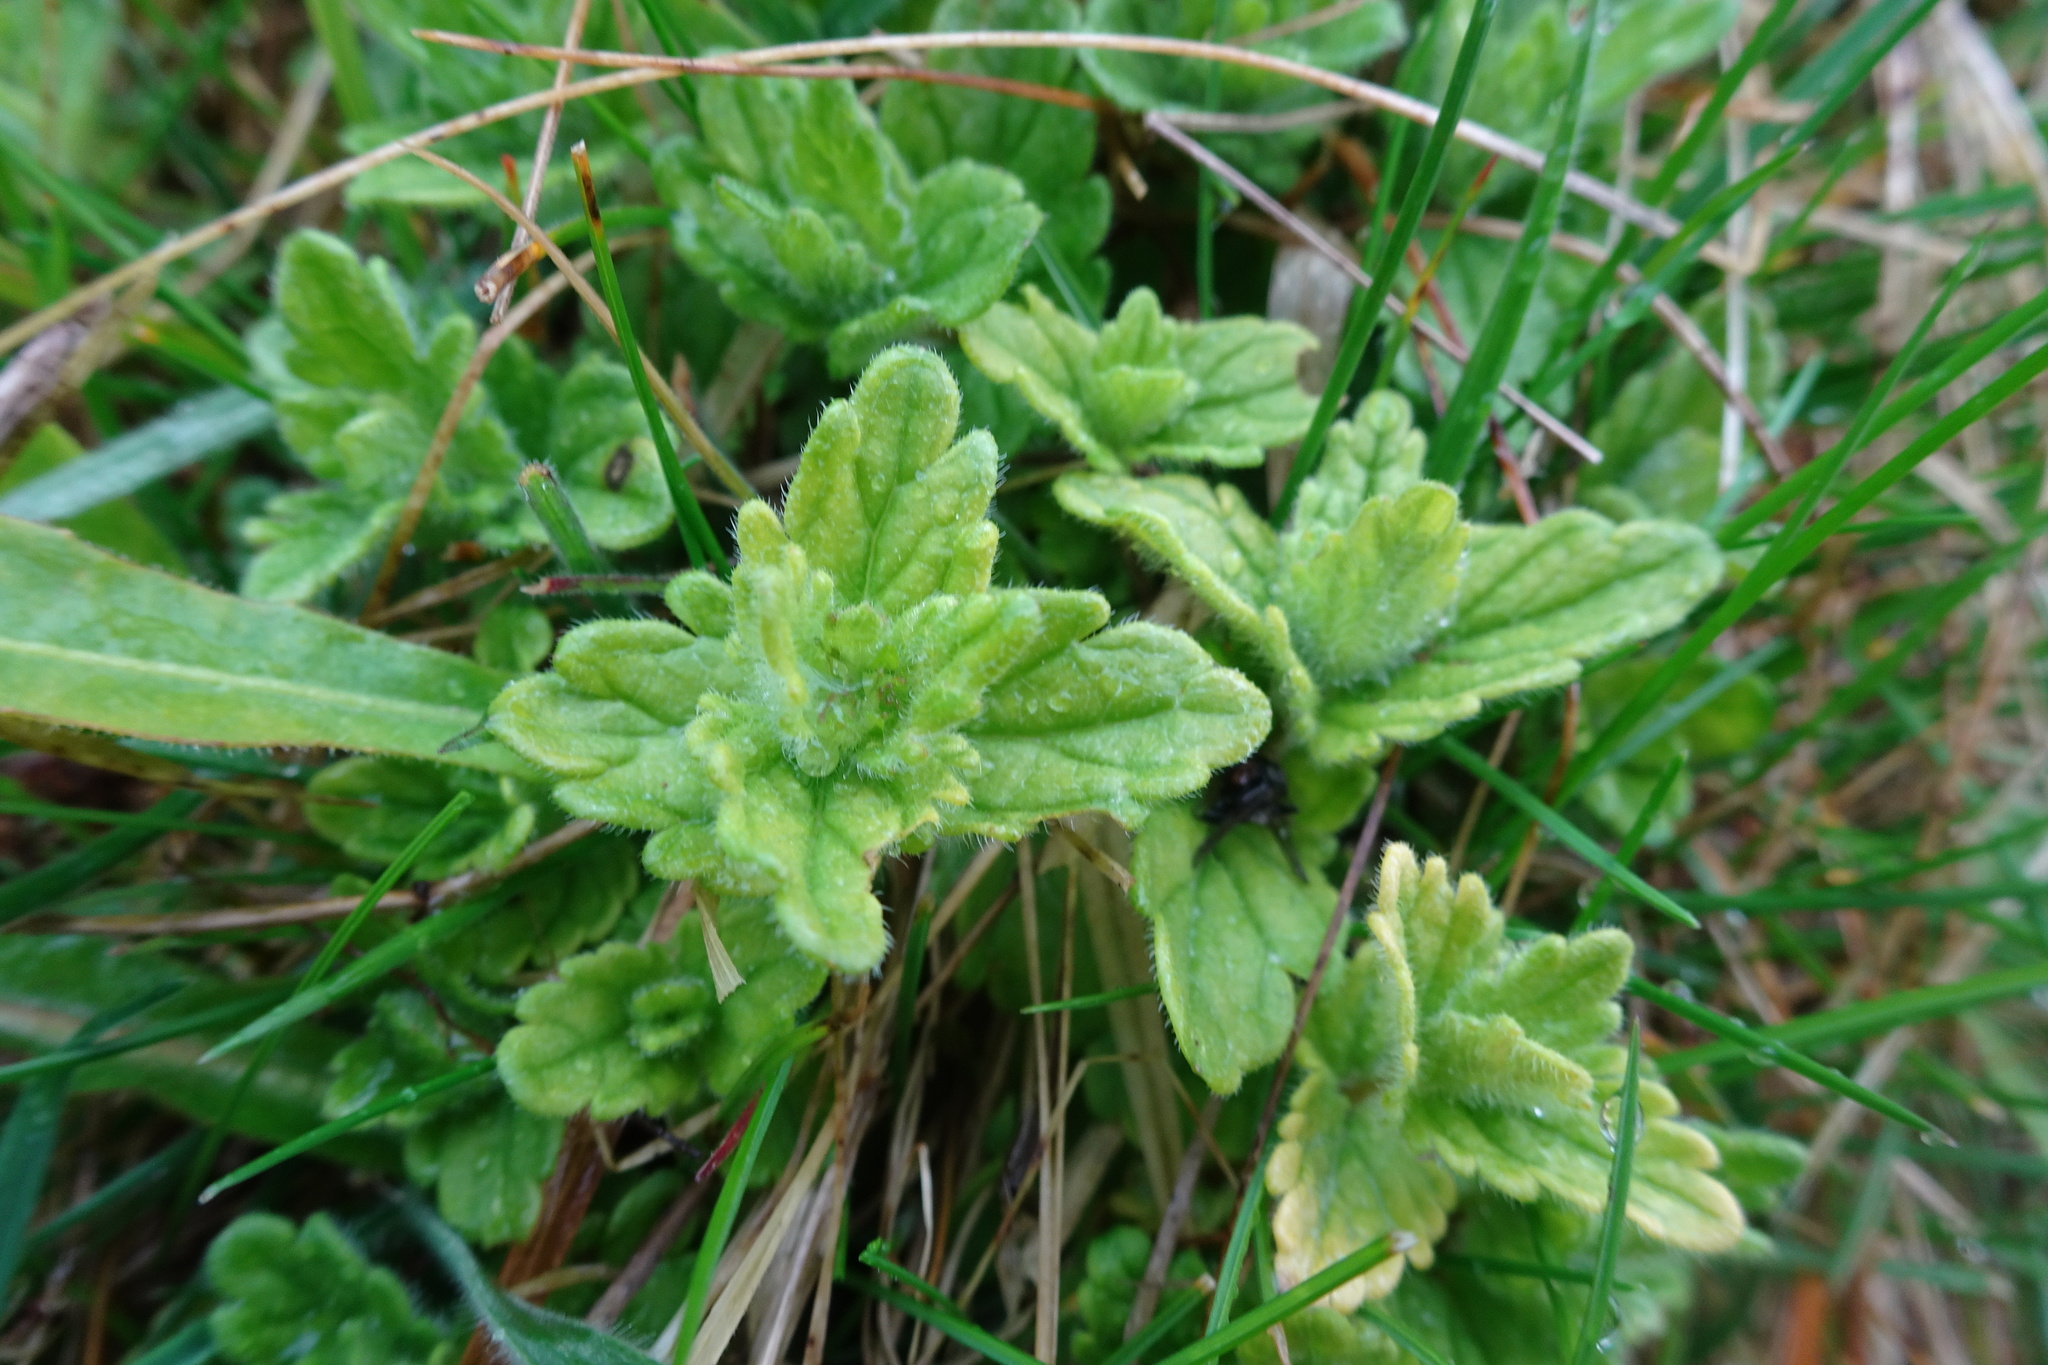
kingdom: Plantae
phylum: Tracheophyta
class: Magnoliopsida
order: Lamiales
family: Plantaginaceae
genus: Veronica
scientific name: Veronica chamaedrys
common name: Germander speedwell
